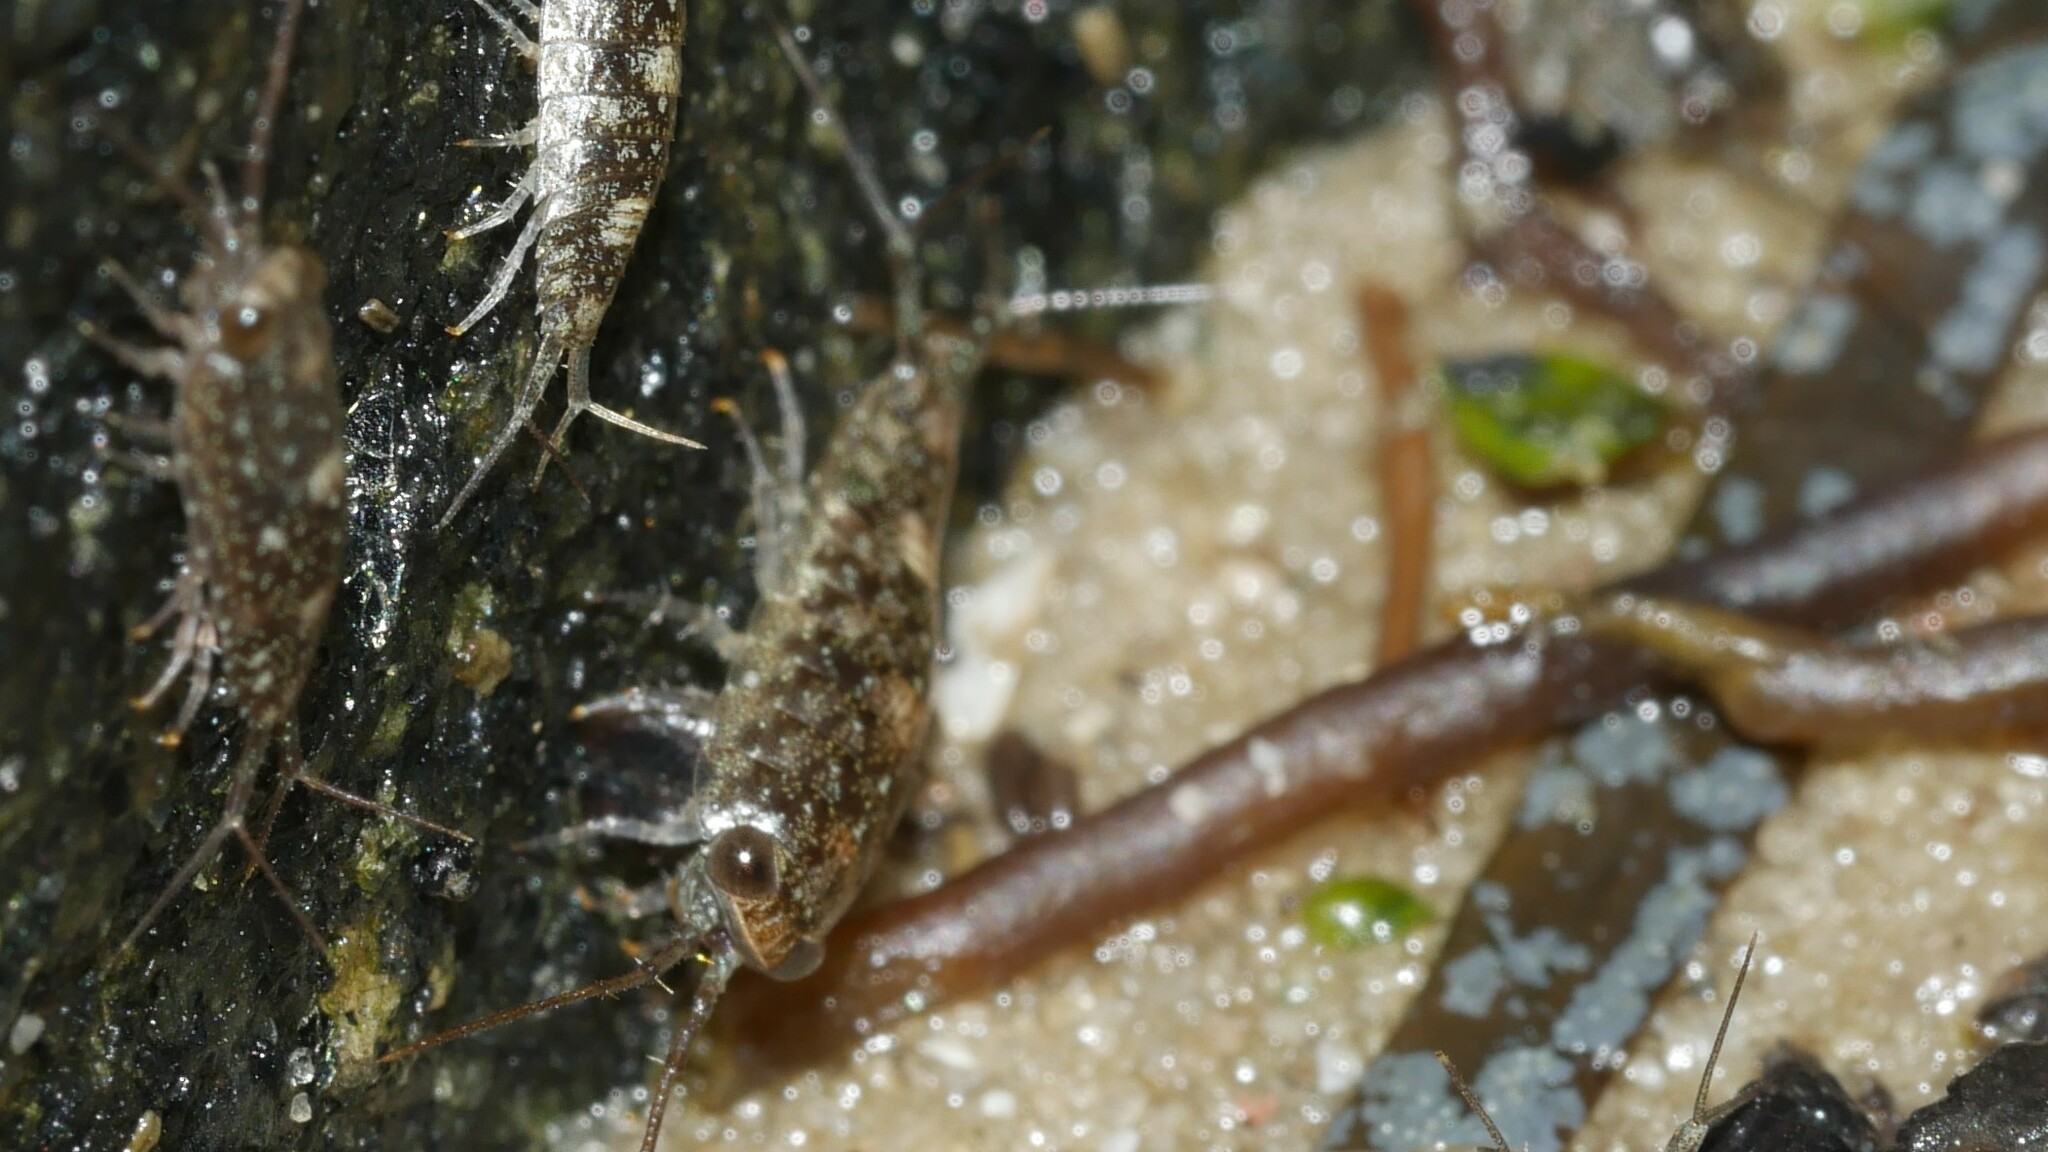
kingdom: Animalia
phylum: Arthropoda
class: Malacostraca
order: Isopoda
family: Ligiidae
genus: Ligia
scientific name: Ligia exotica
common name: Wharf roach
